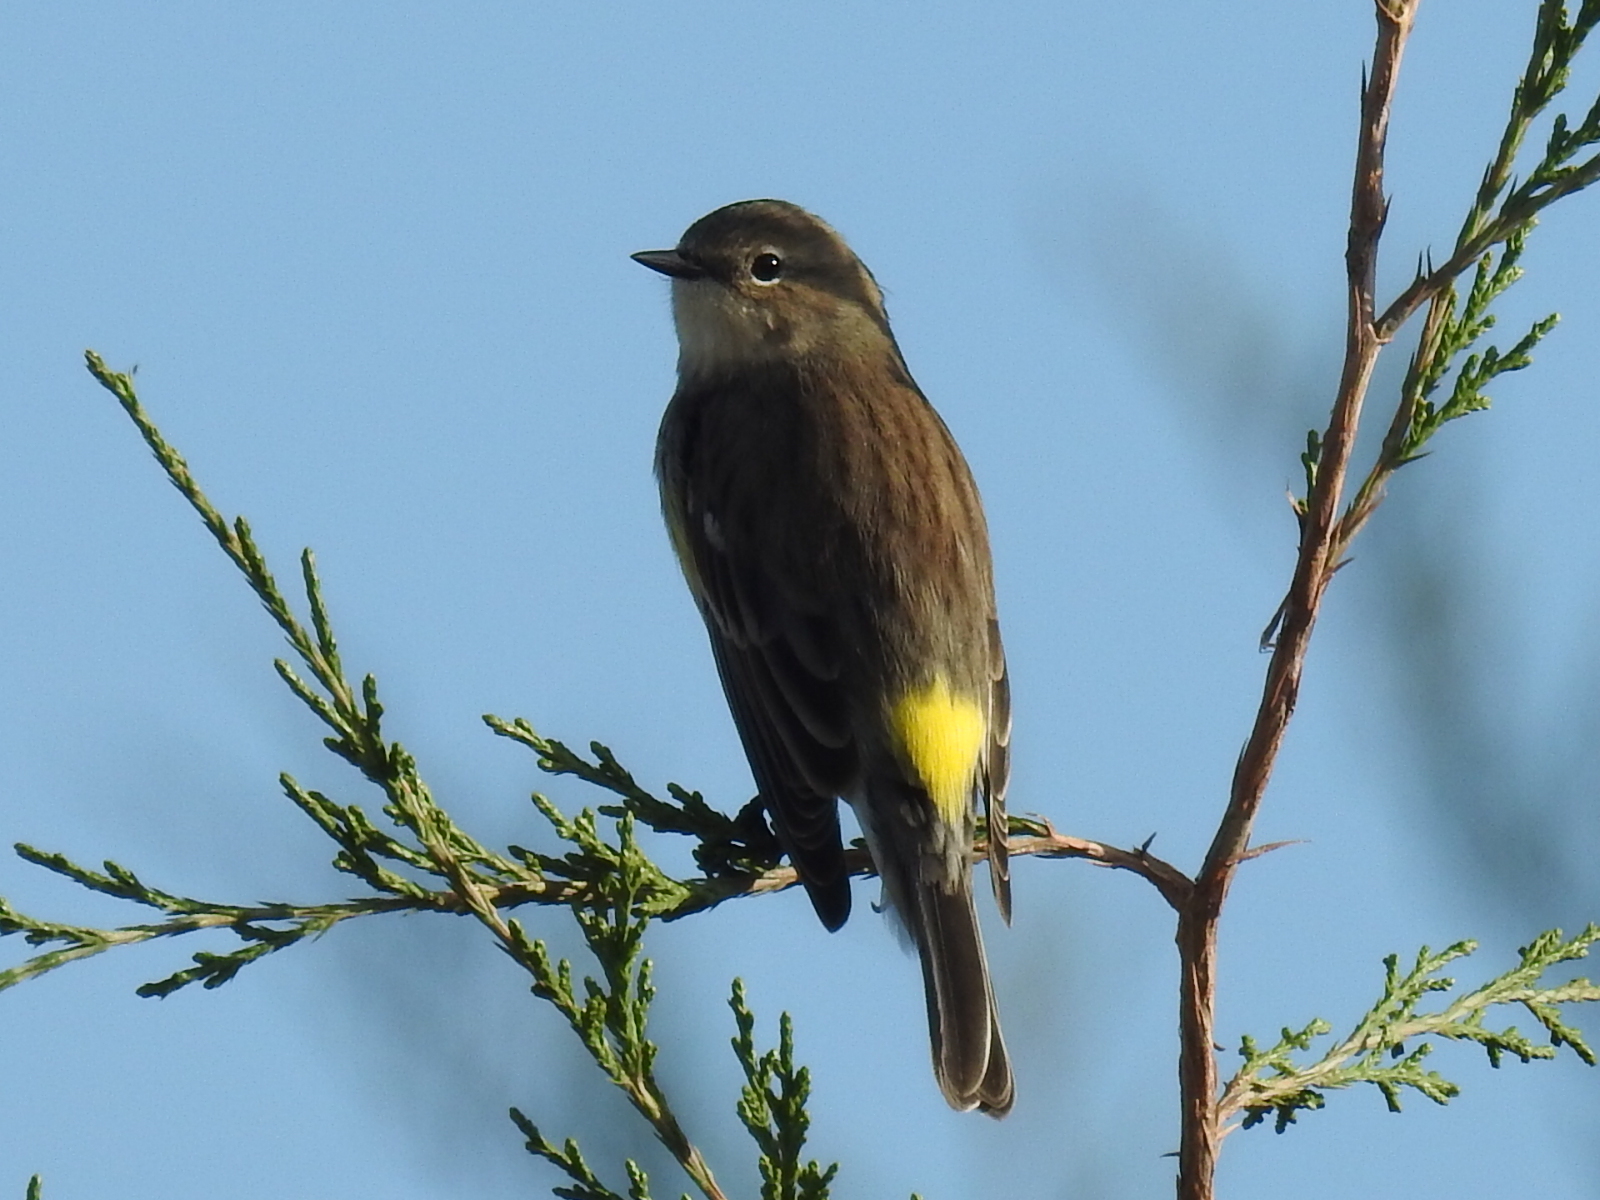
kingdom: Animalia
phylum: Chordata
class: Aves
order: Passeriformes
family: Parulidae
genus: Setophaga
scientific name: Setophaga coronata
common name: Myrtle warbler
